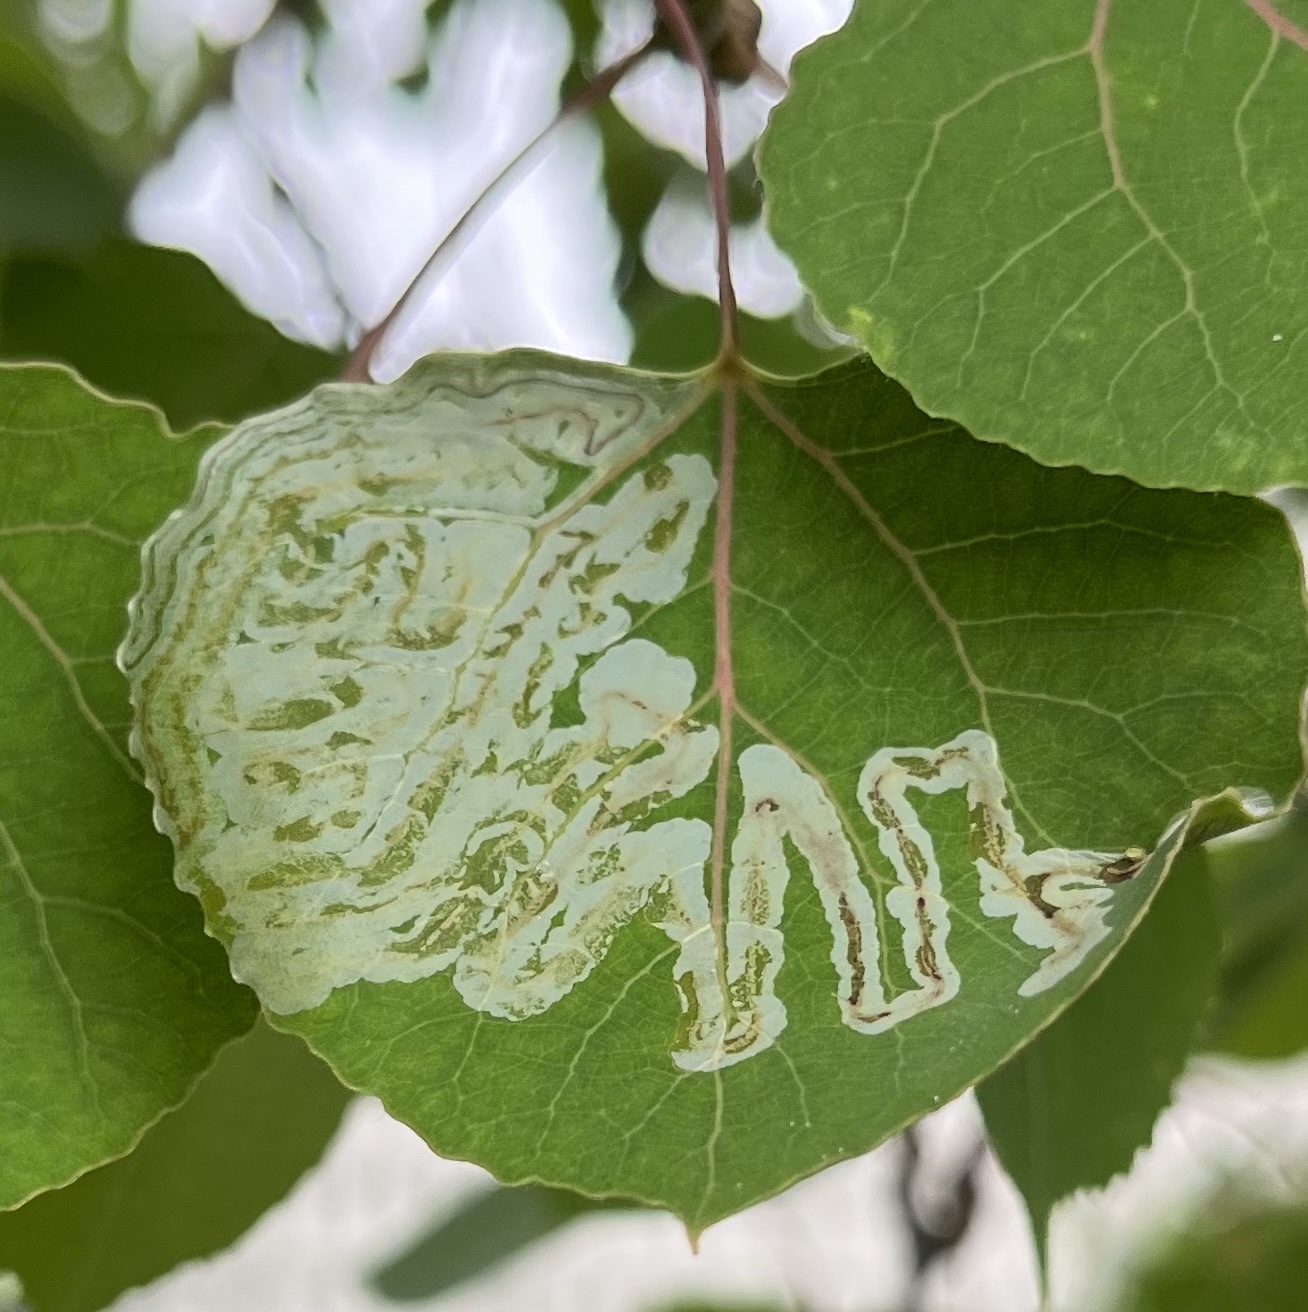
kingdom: Animalia
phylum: Arthropoda
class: Insecta
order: Lepidoptera
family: Gracillariidae
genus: Phyllocnistis
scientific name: Phyllocnistis populiella
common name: Aspen serpentine leafminer moth
